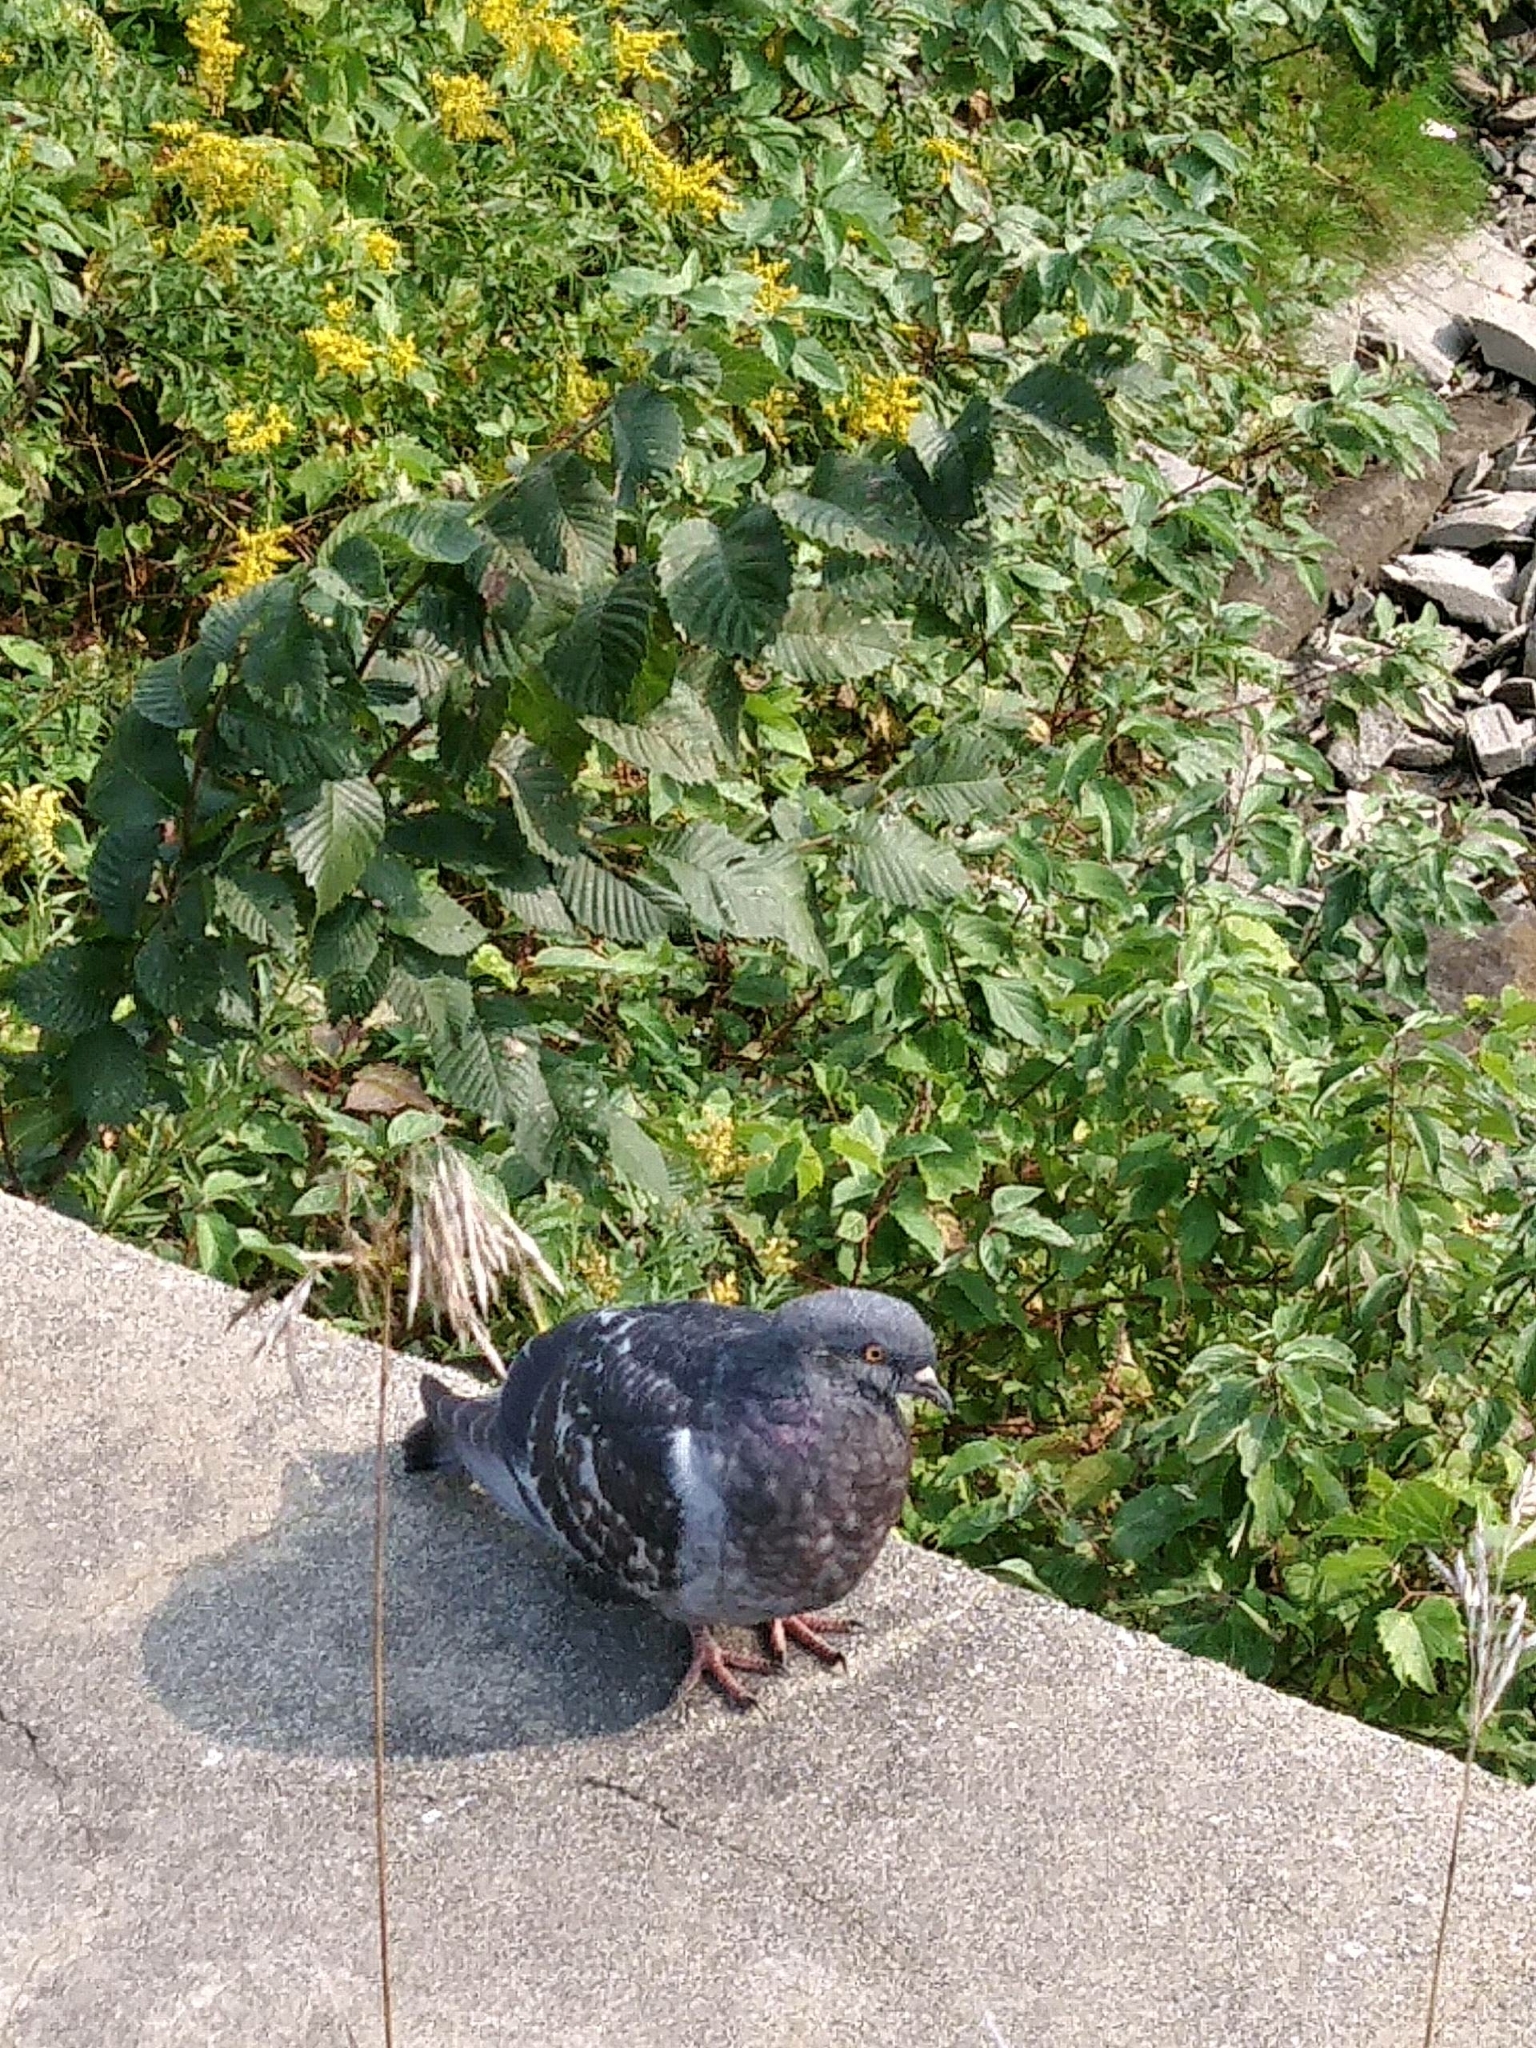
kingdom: Animalia
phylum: Chordata
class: Aves
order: Columbiformes
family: Columbidae
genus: Columba
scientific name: Columba livia
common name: Rock pigeon
